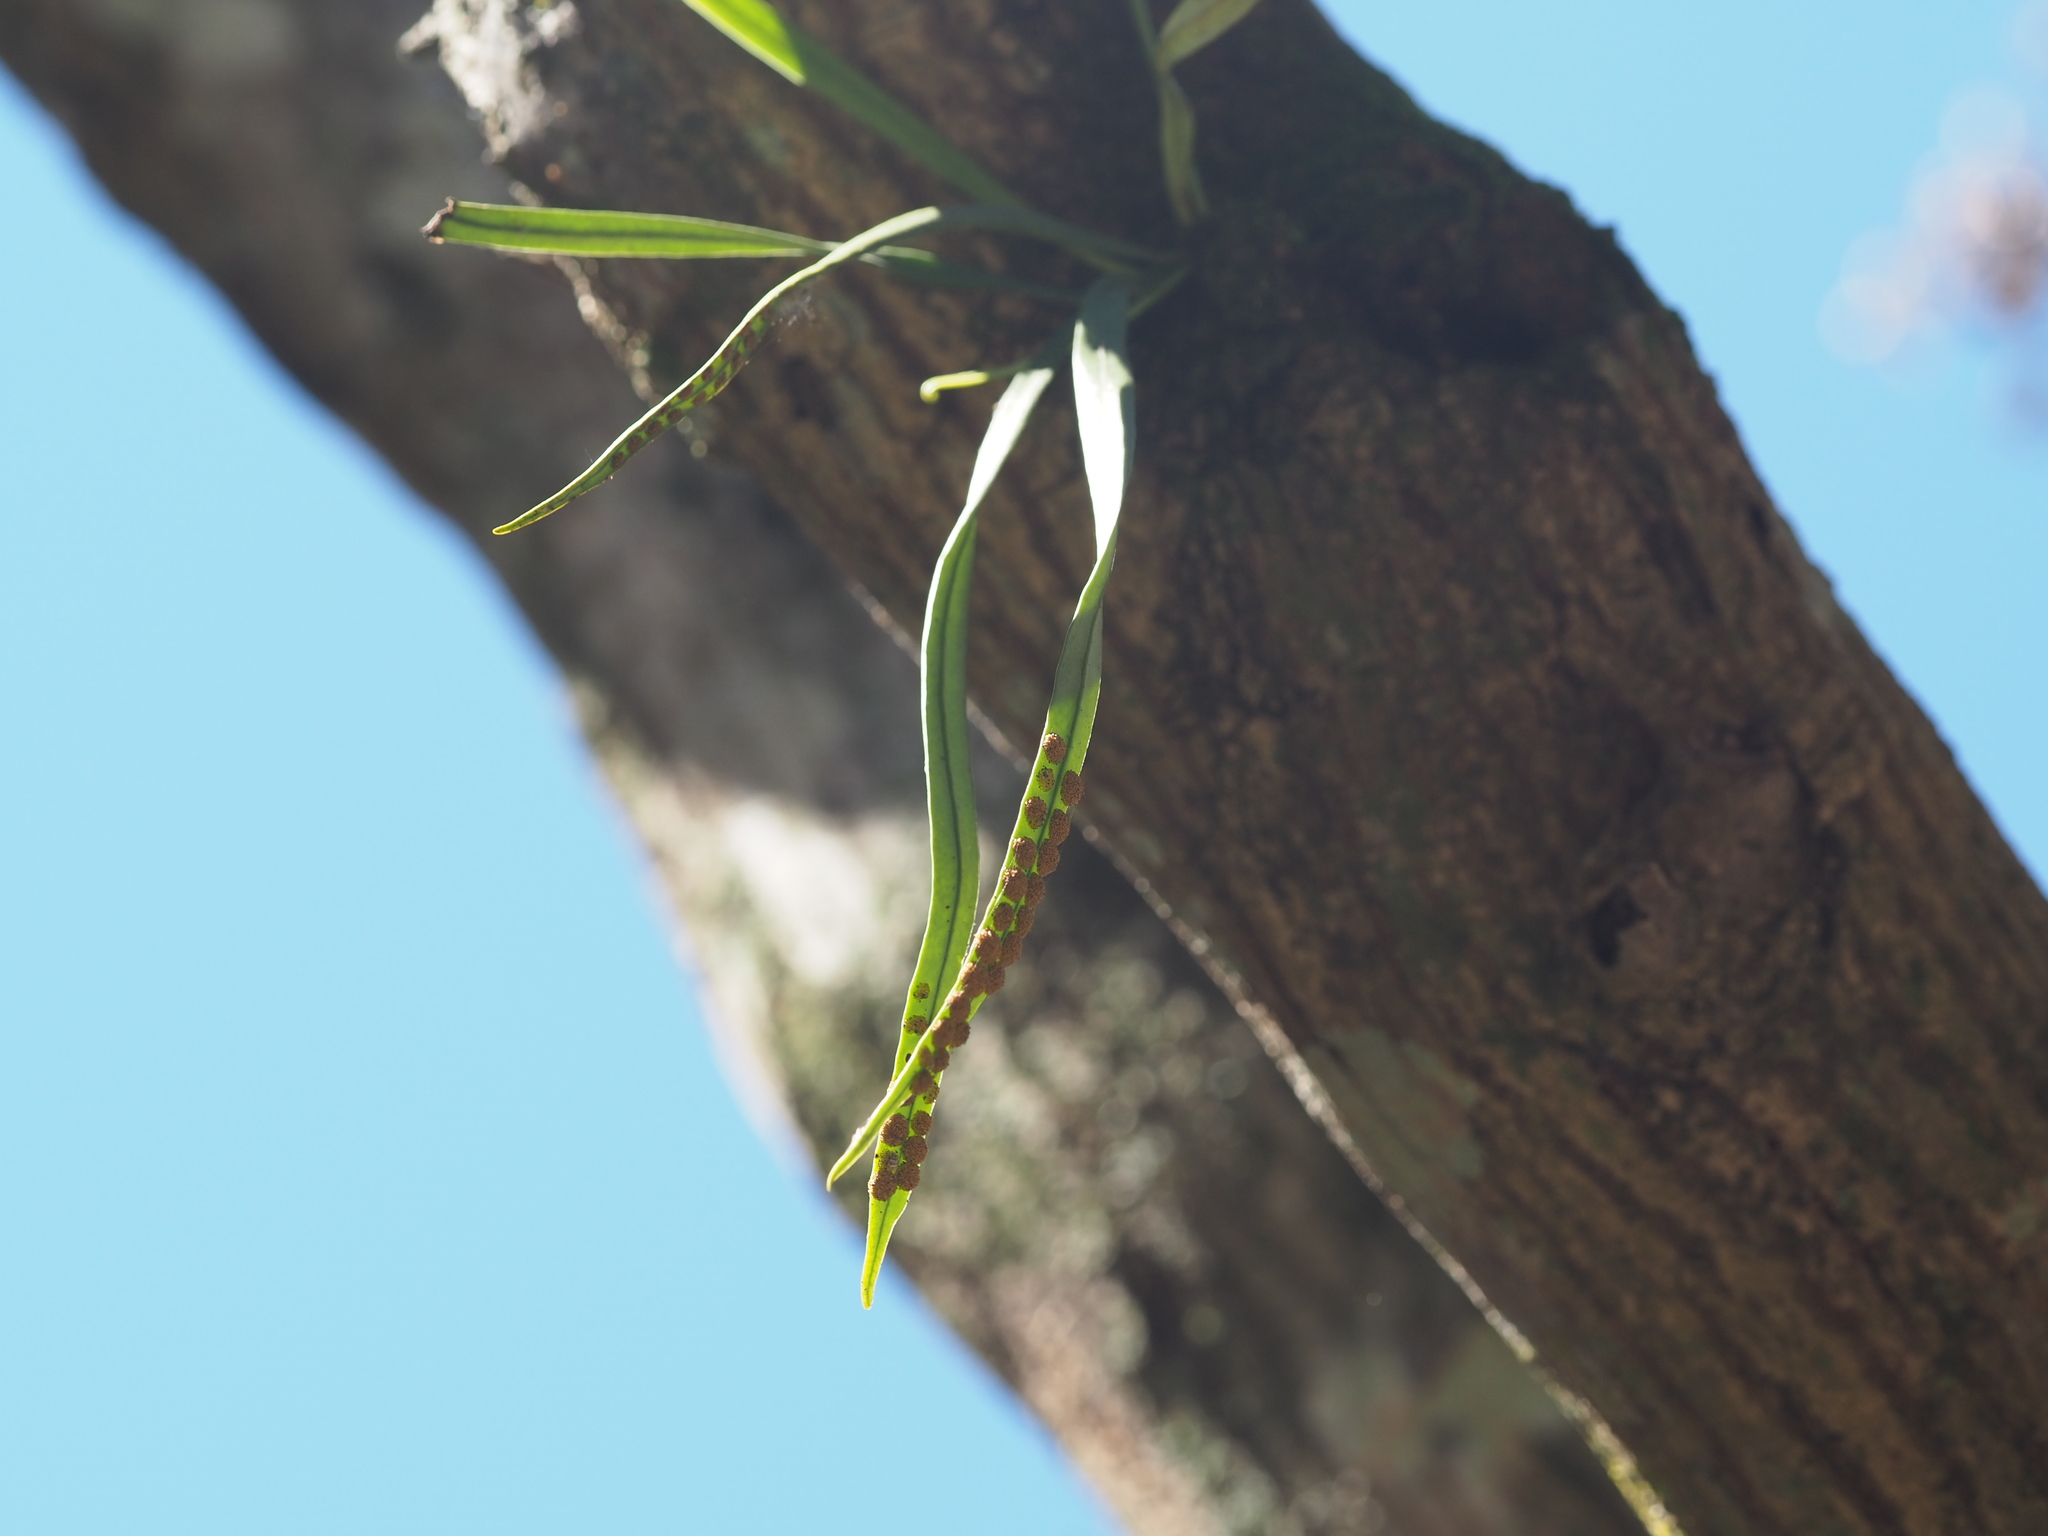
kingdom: Plantae
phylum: Tracheophyta
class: Polypodiopsida
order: Polypodiales
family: Polypodiaceae
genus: Lepisorus
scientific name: Lepisorus thunbergianus
